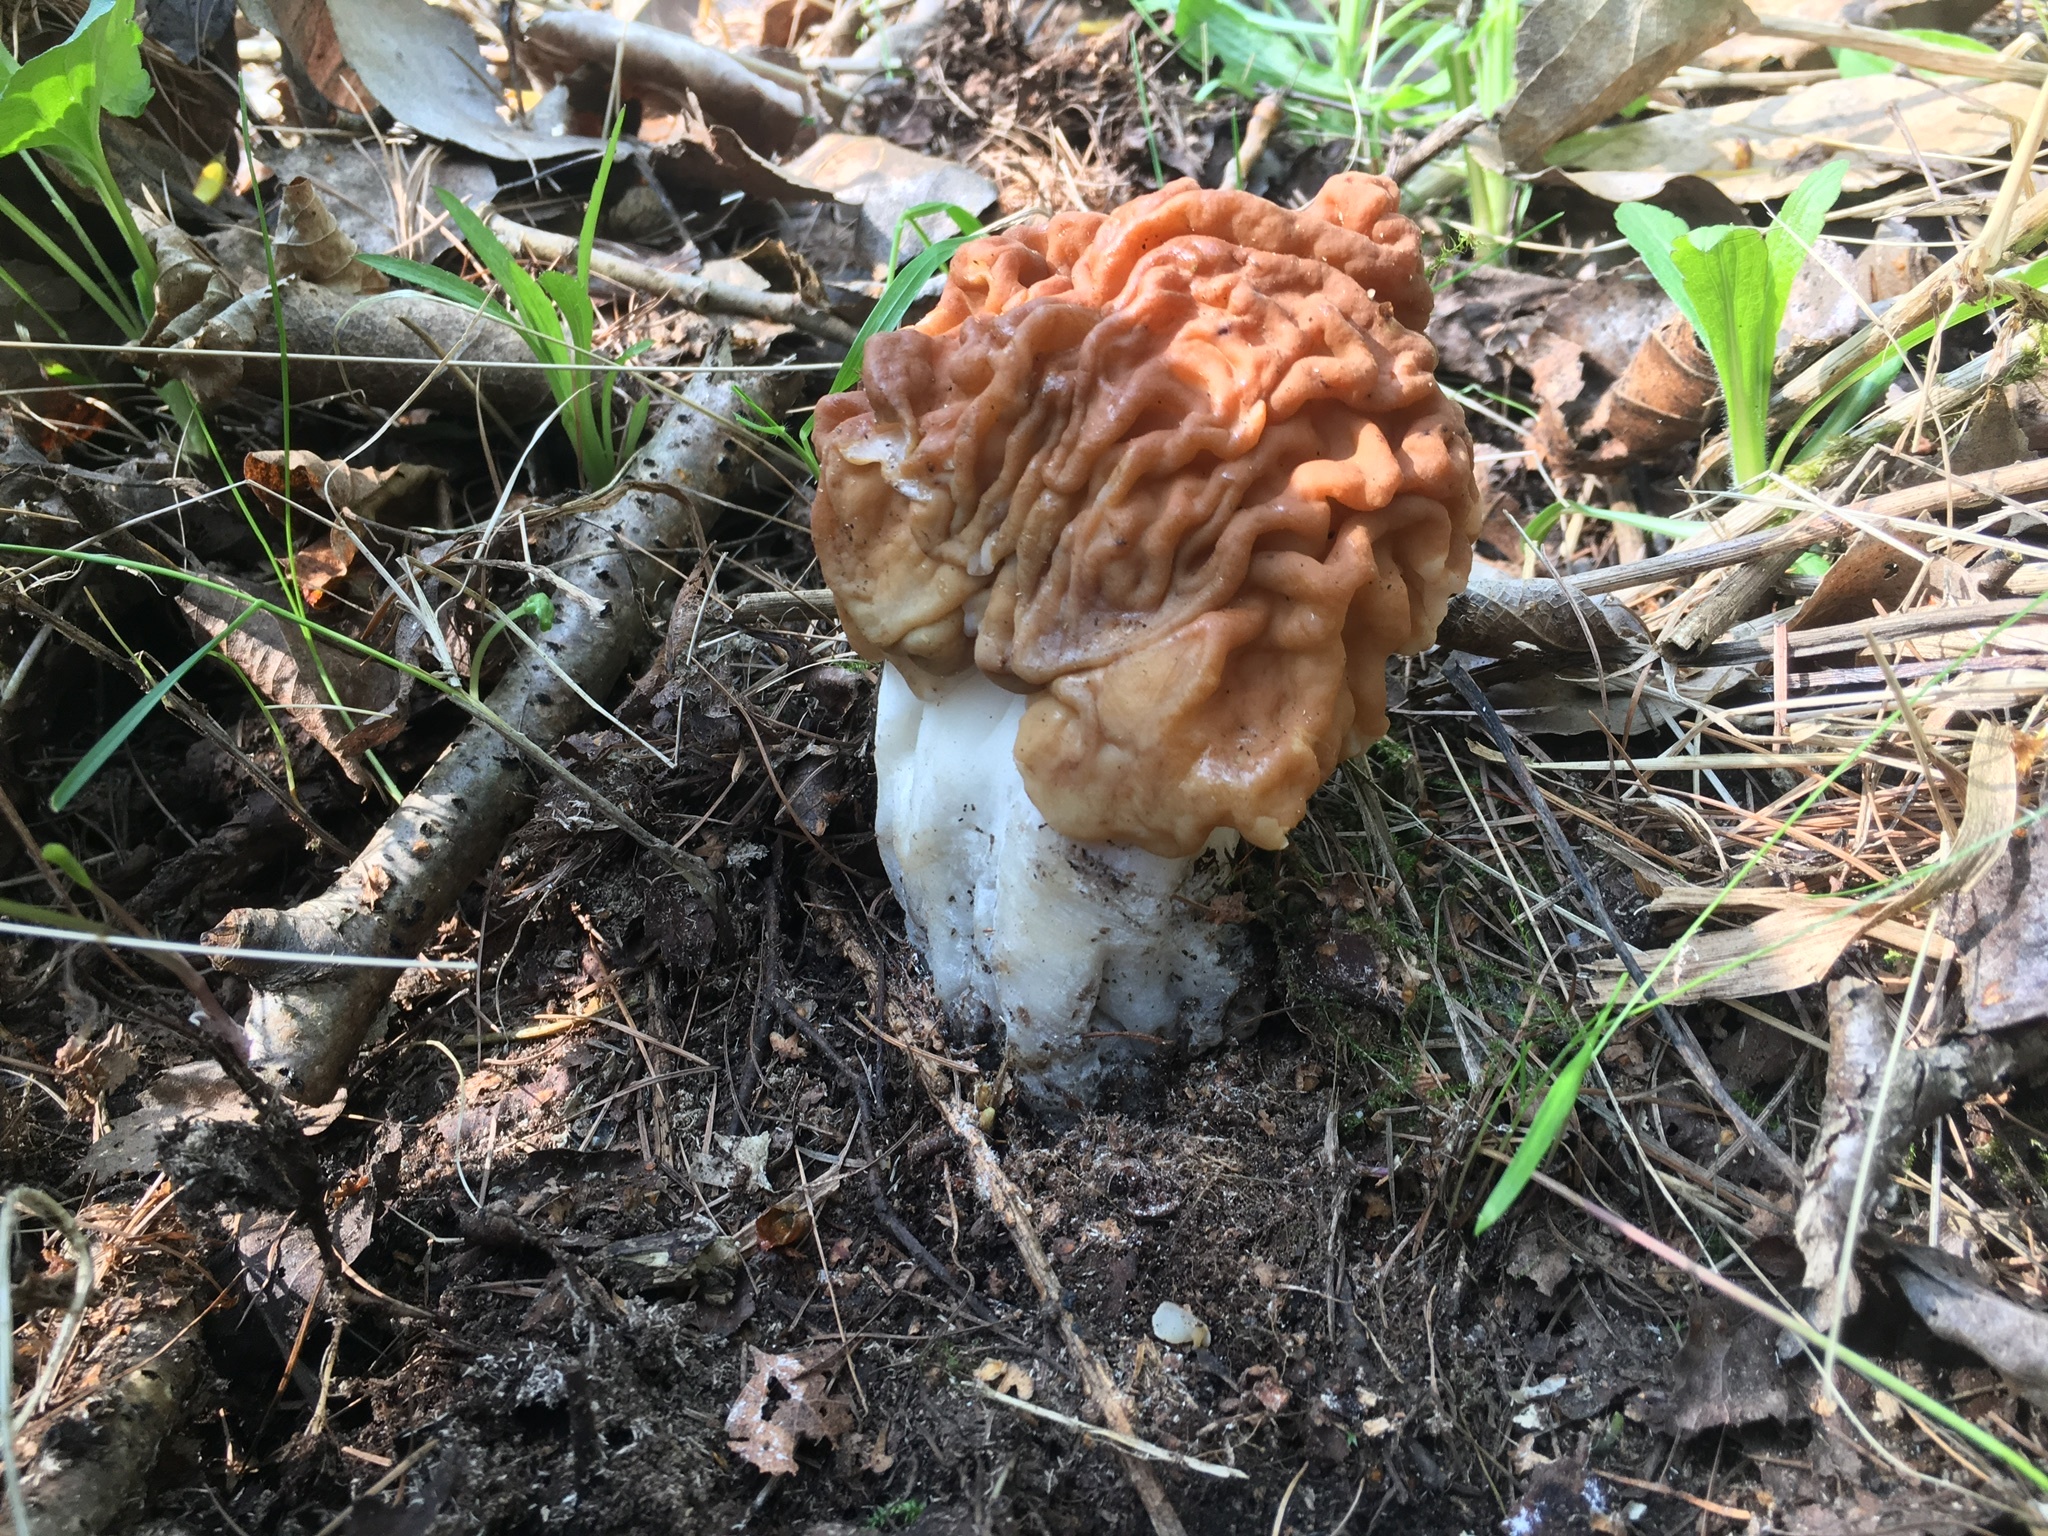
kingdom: Fungi
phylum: Ascomycota
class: Pezizomycetes
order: Pezizales
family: Discinaceae
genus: Gyromitra
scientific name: Gyromitra gigas
